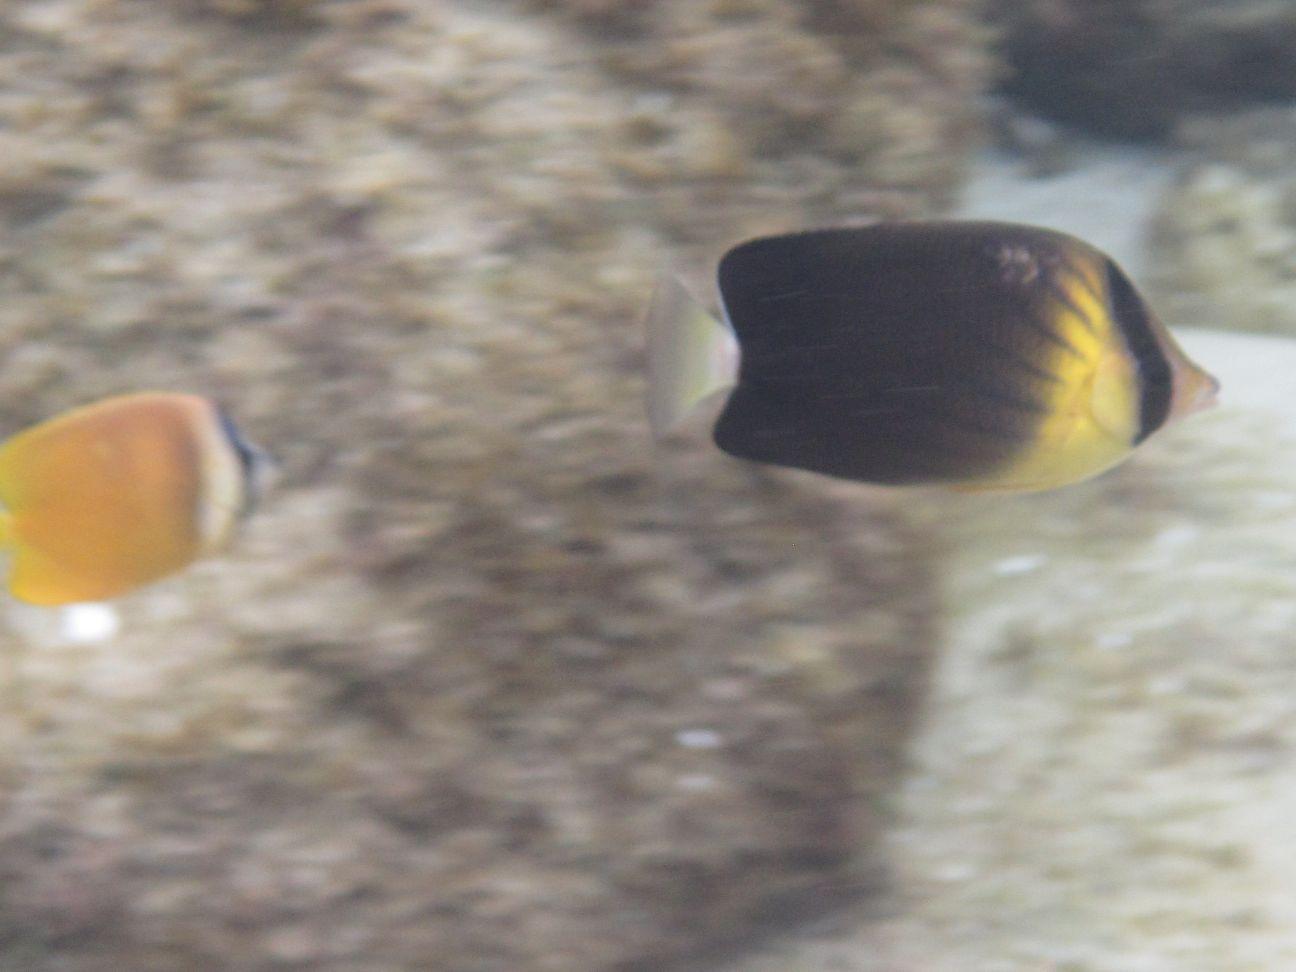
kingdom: Animalia
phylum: Chordata
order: Perciformes
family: Chaetodontidae
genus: Chaetodon
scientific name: Chaetodon blackburnii
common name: Blackburn's butterflyfish
